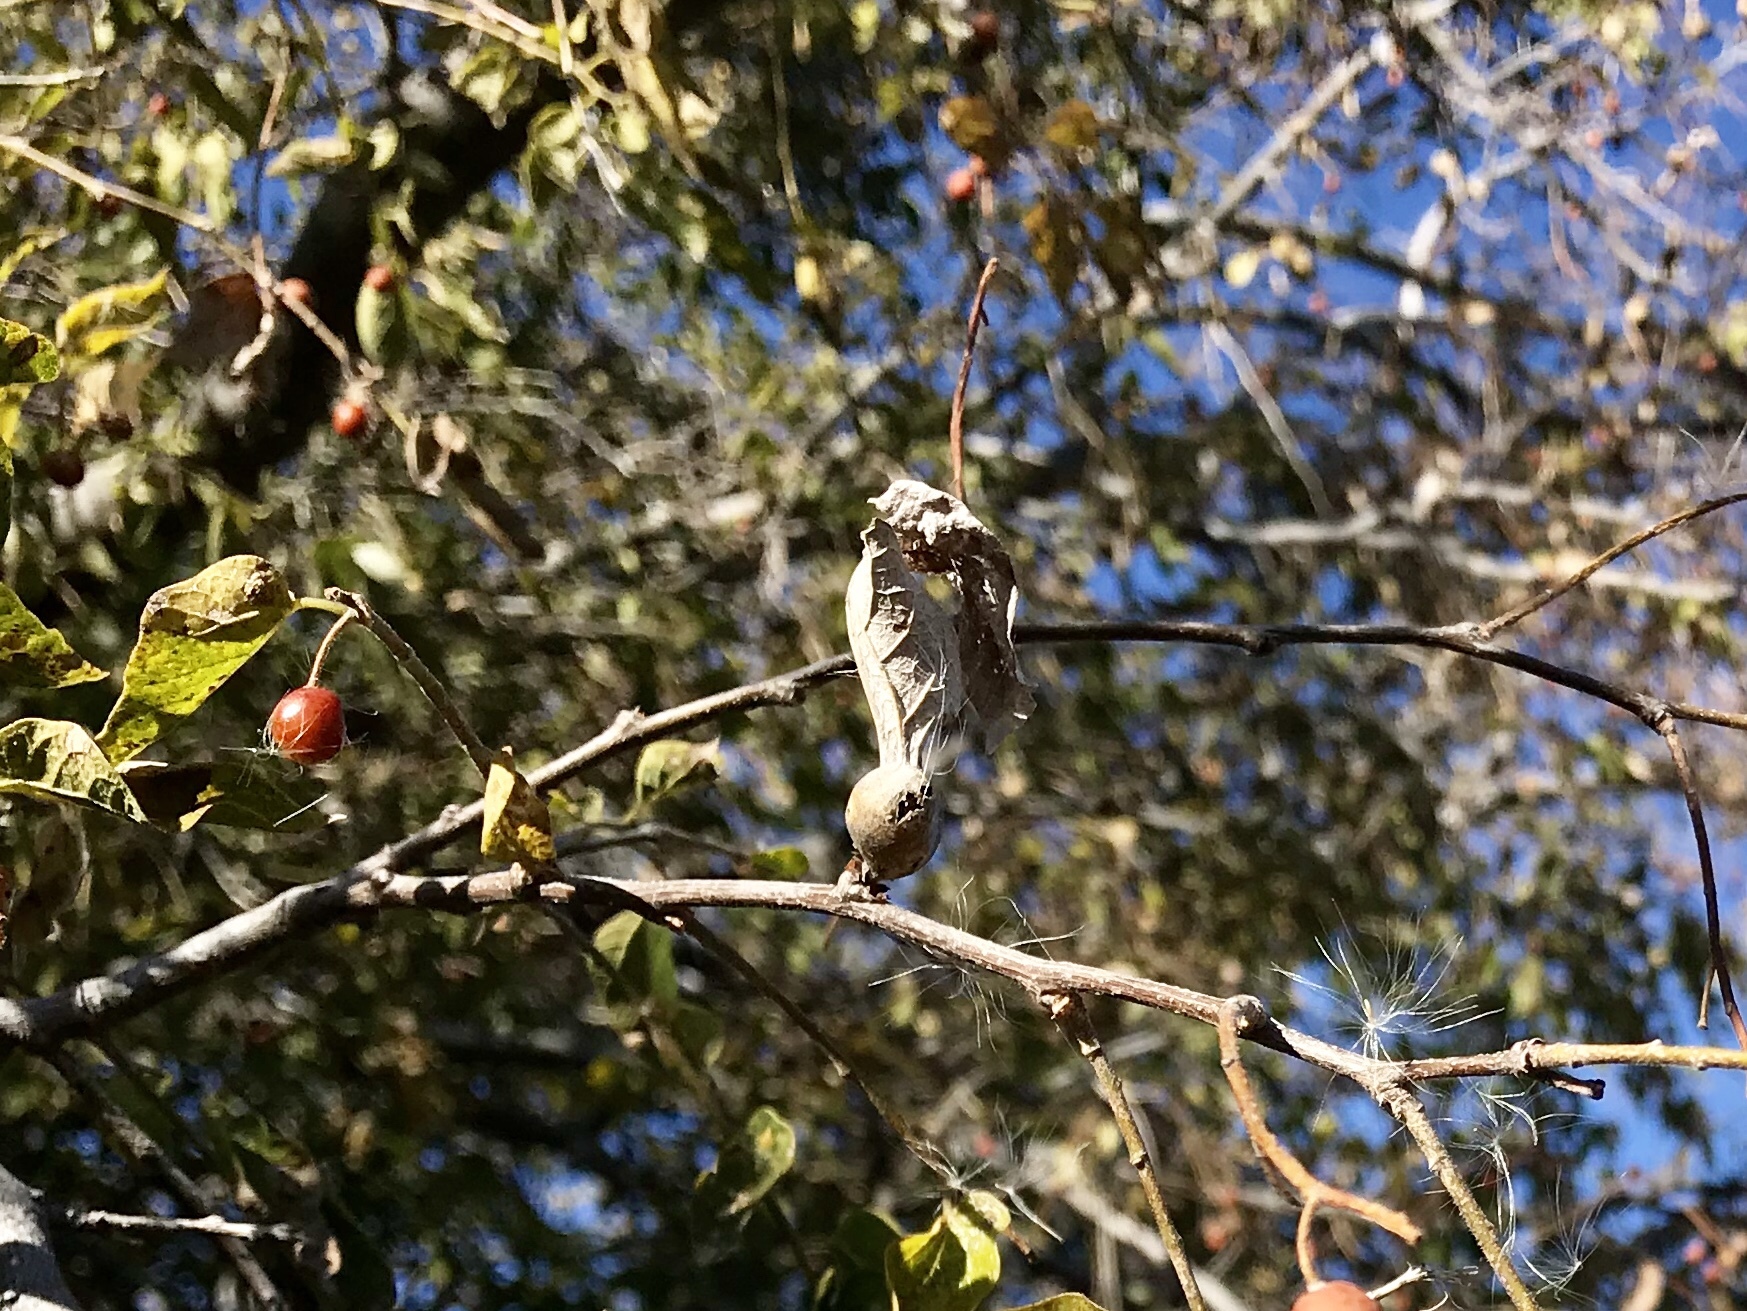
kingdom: Animalia
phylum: Arthropoda
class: Insecta
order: Hemiptera
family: Aphalaridae
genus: Pachypsylla
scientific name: Pachypsylla venusta
